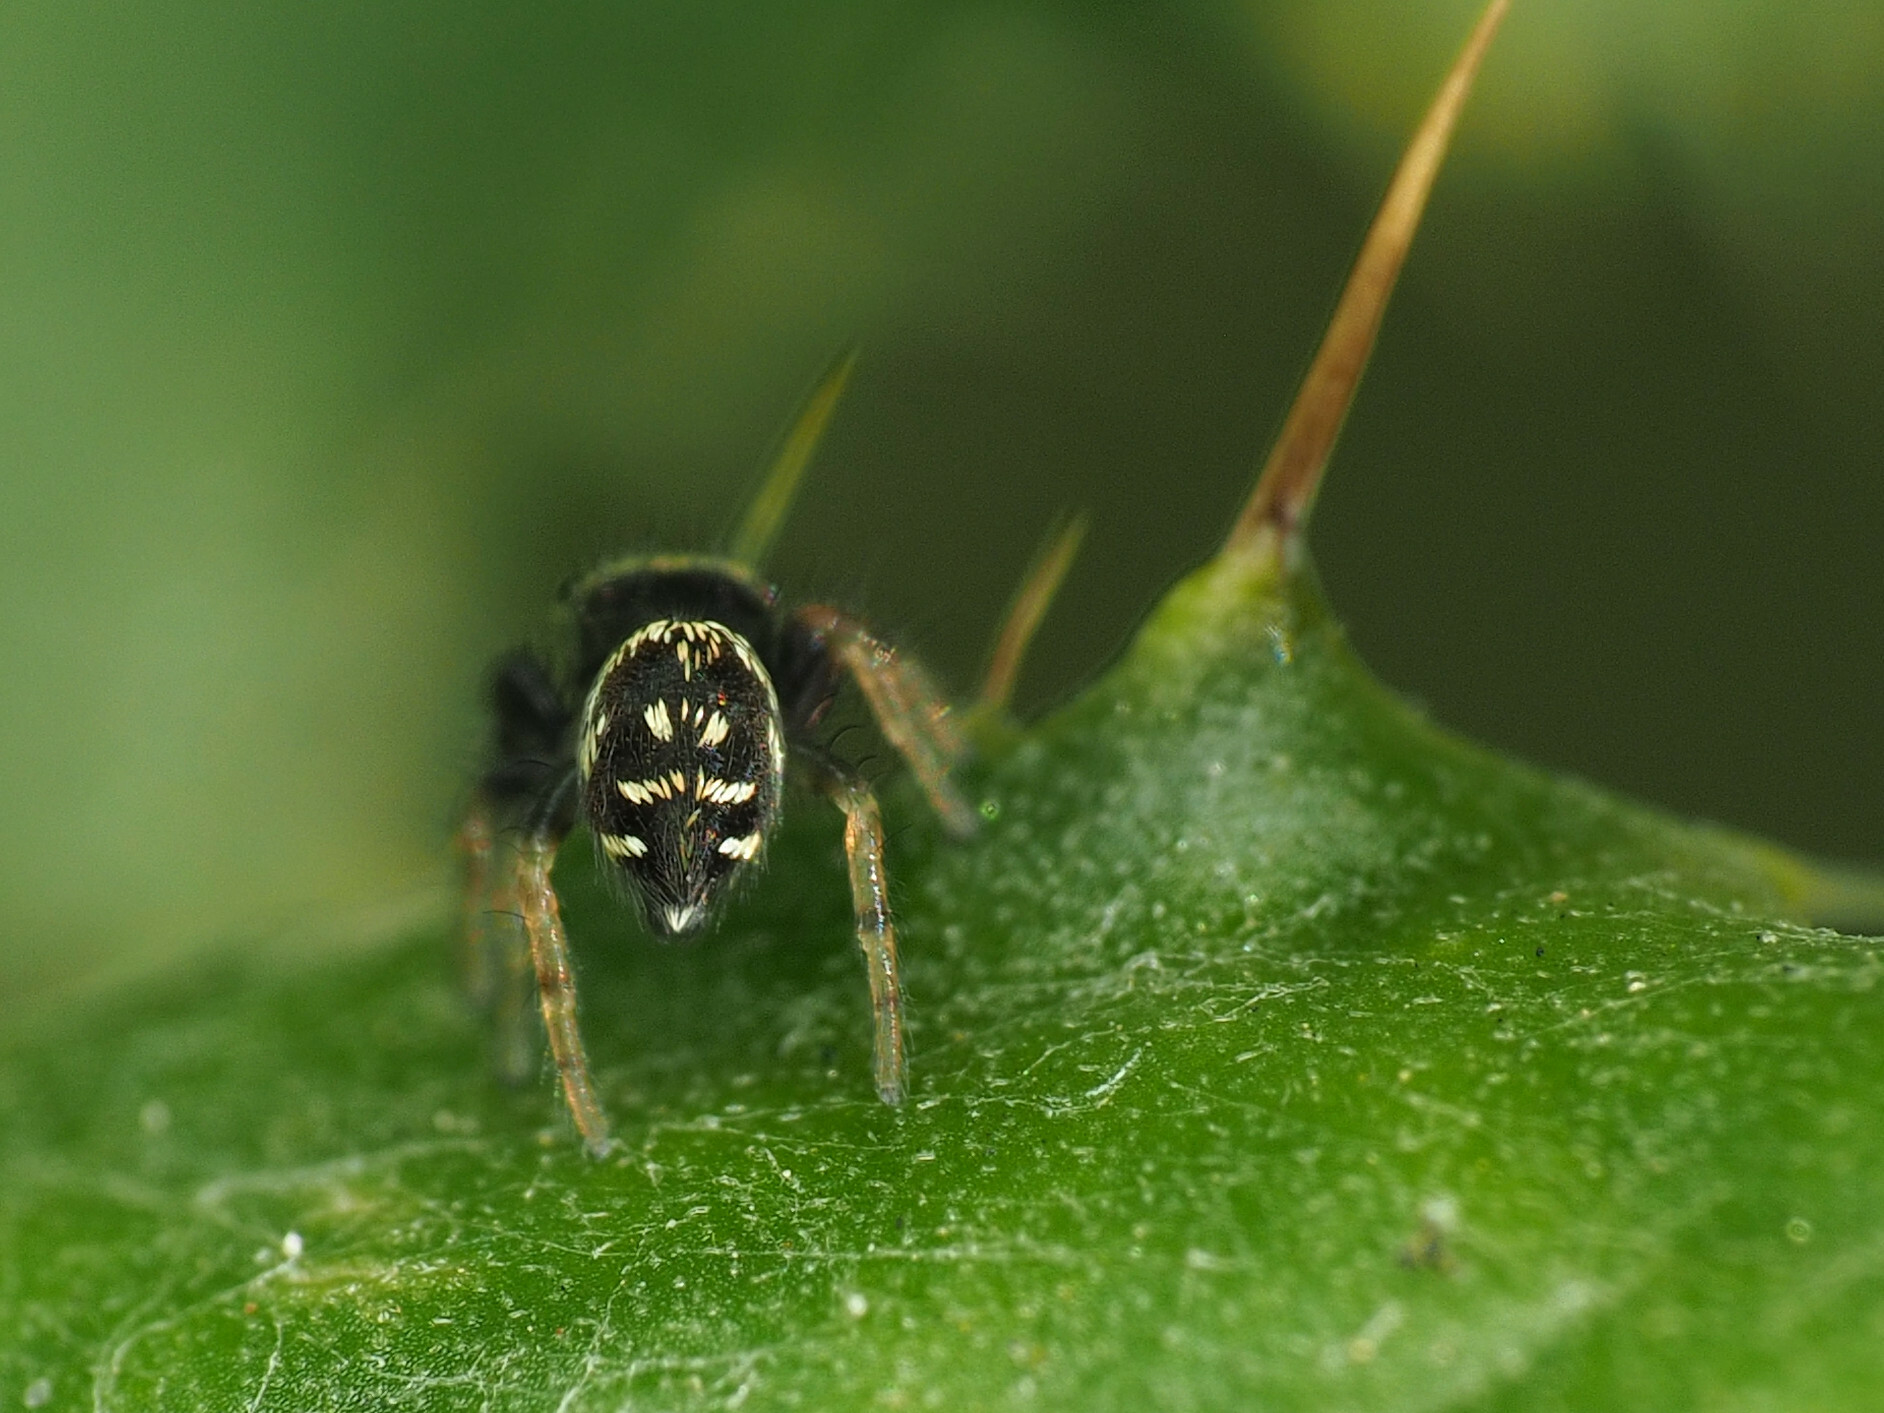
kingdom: Animalia
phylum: Arthropoda
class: Arachnida
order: Araneae
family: Salticidae
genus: Paraphidippus
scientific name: Paraphidippus aurantius
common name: Jumping spiders
